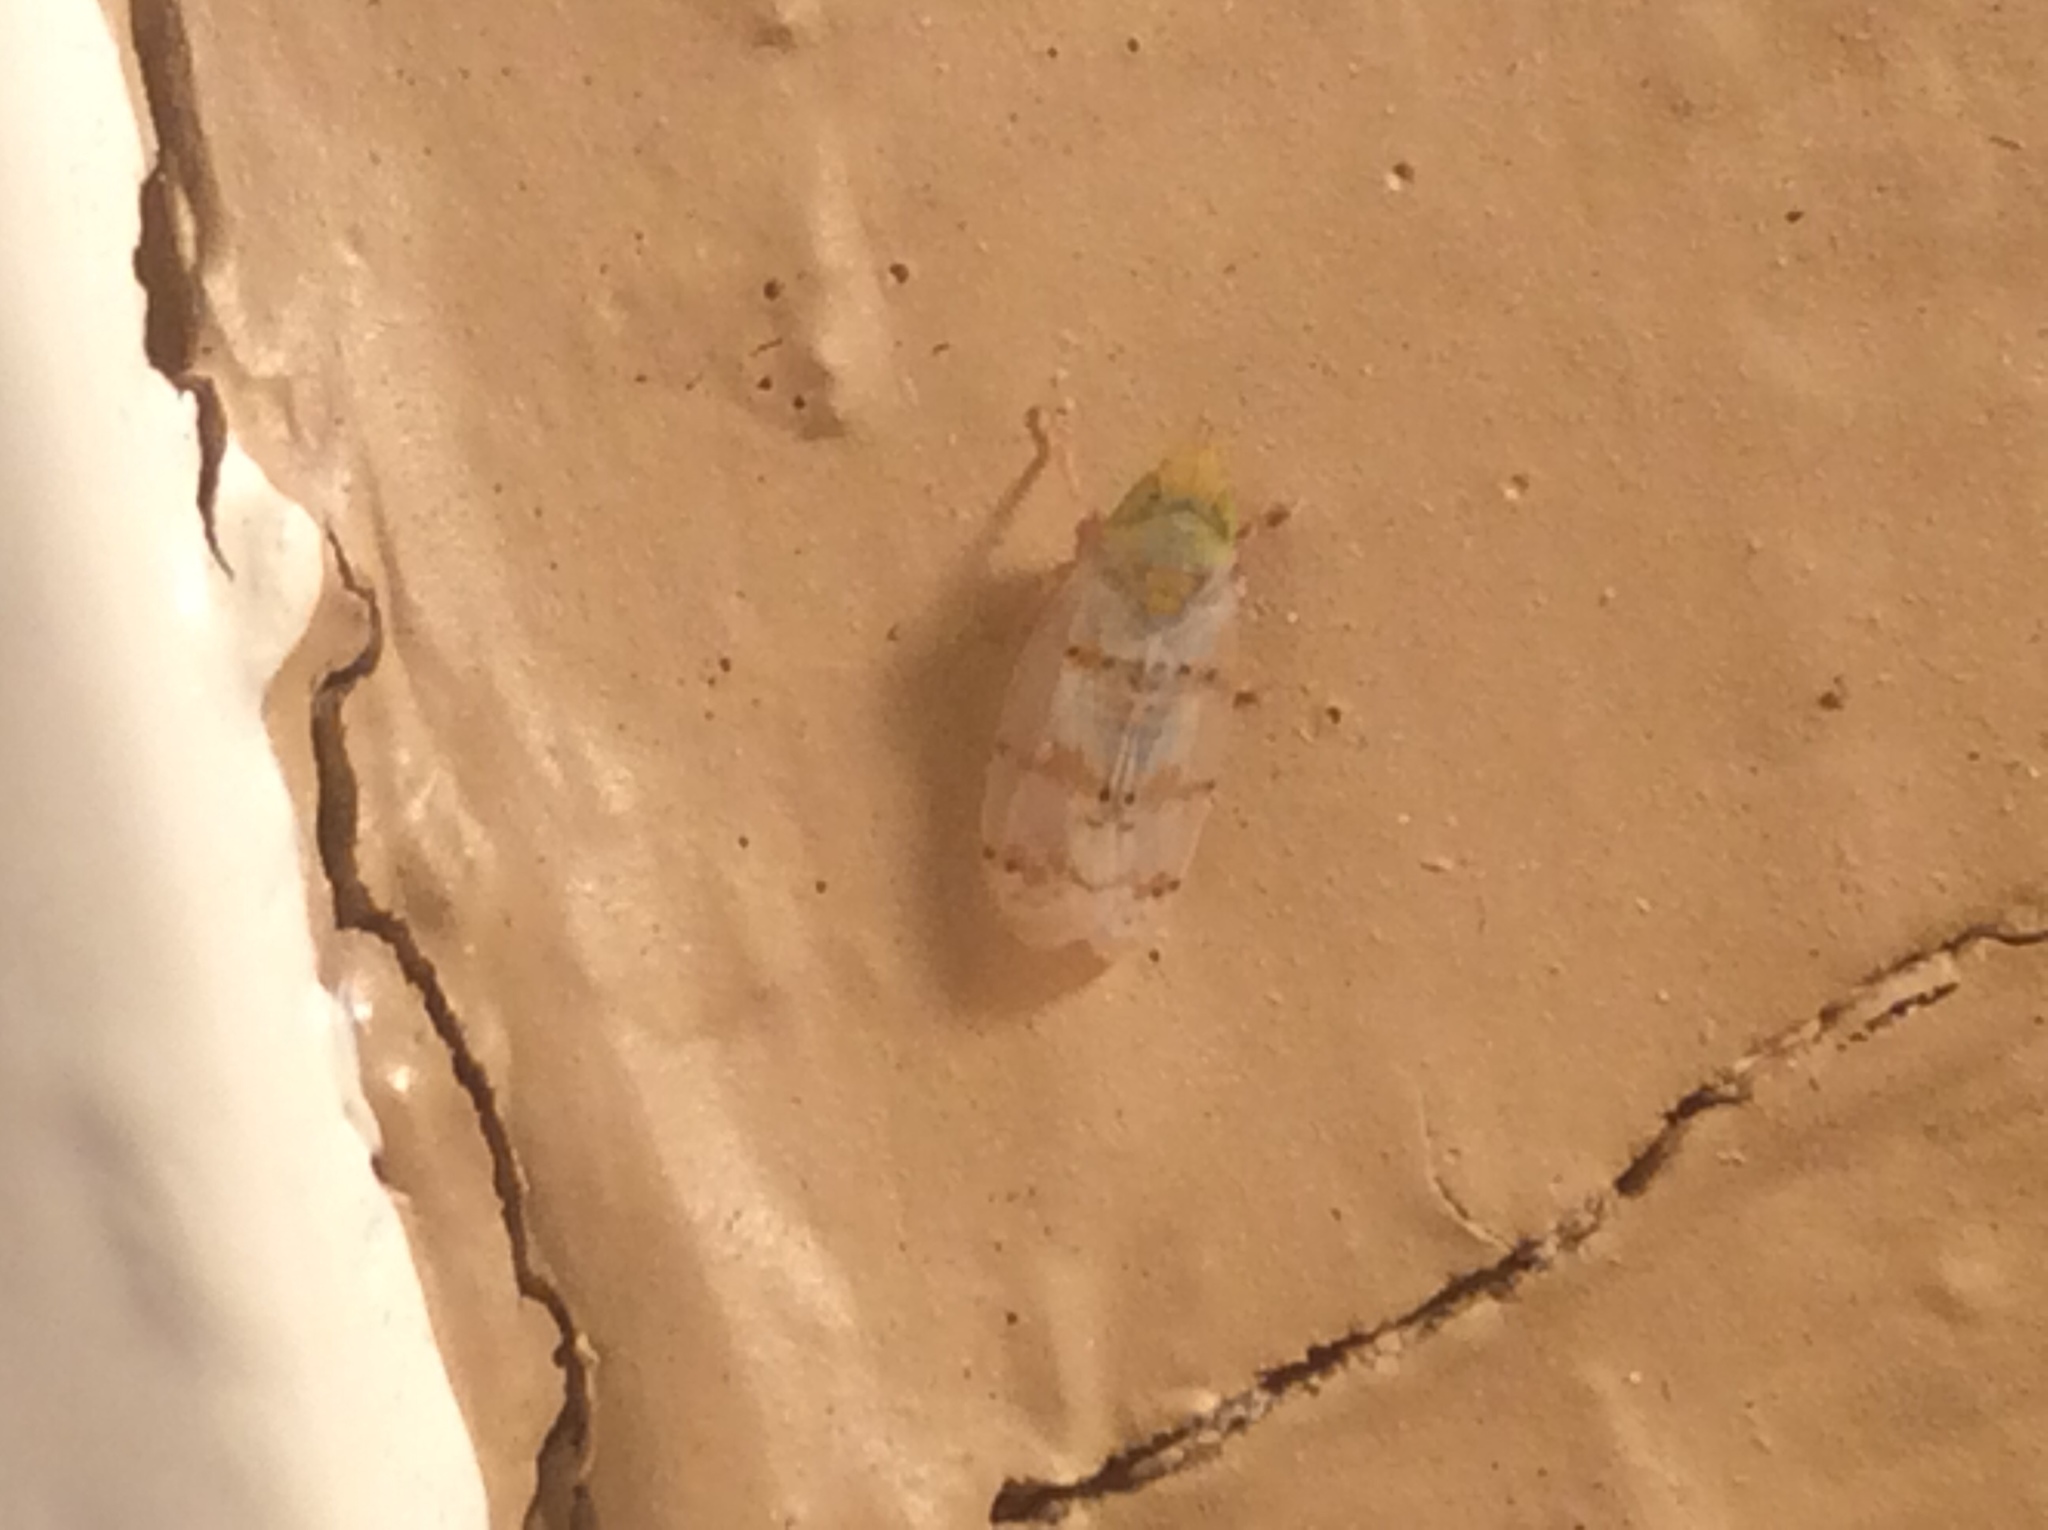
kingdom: Animalia
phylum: Arthropoda
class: Insecta
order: Hemiptera
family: Cicadellidae
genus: Japananus
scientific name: Japananus hyalinus
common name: The japanese maple leafhopper
